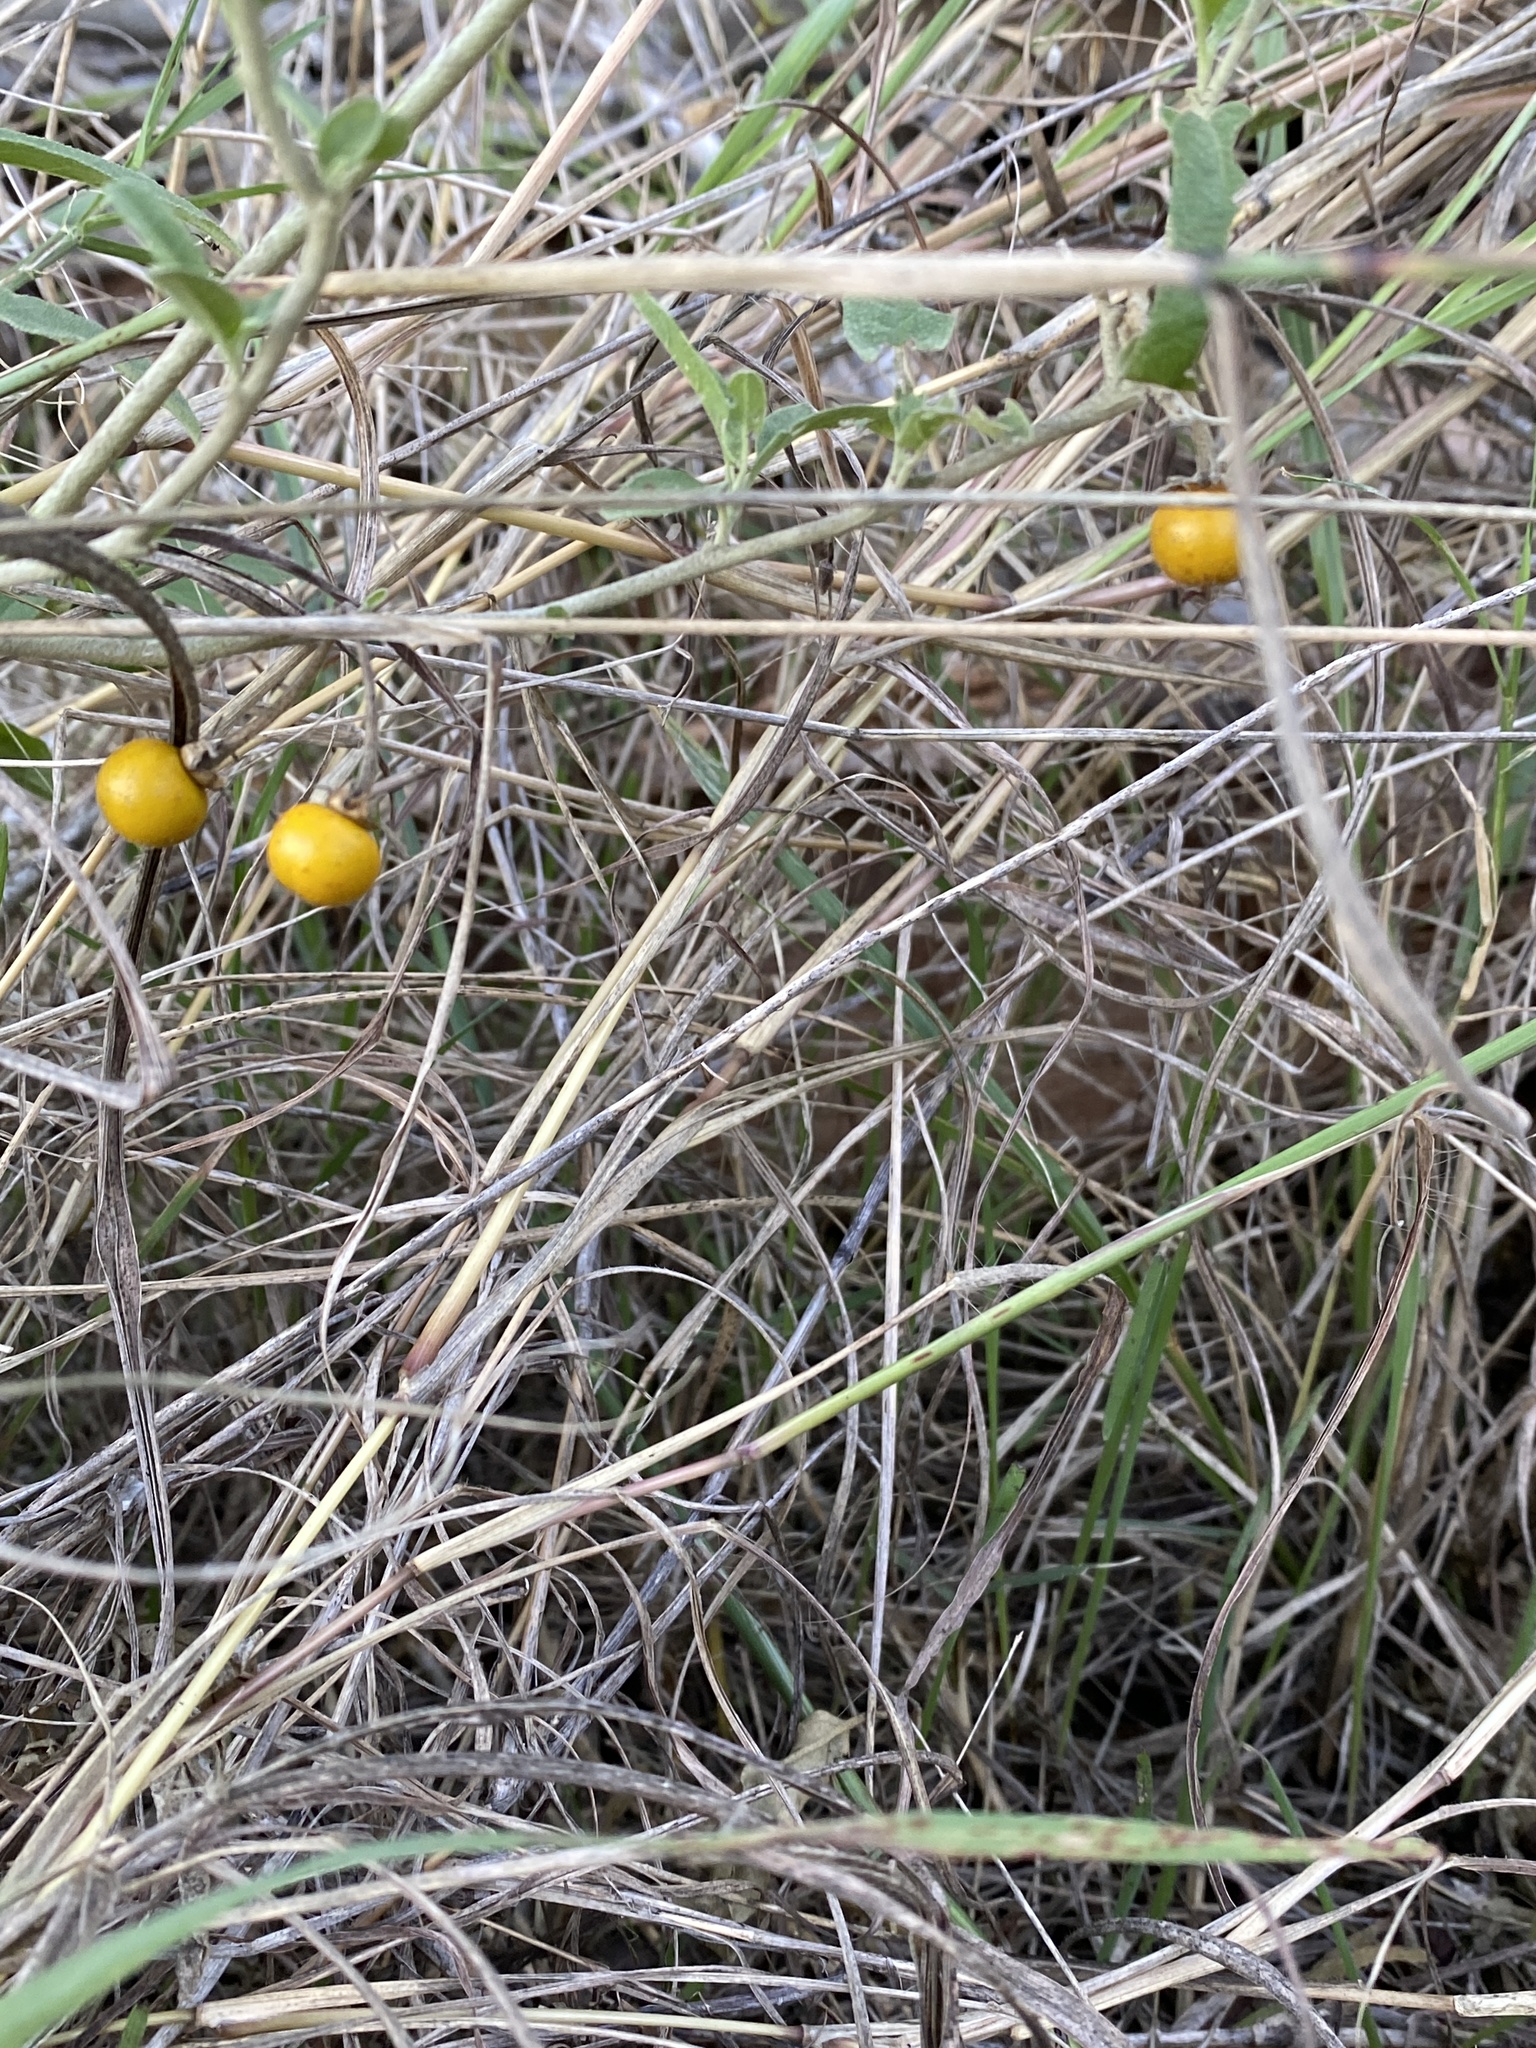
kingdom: Plantae
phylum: Tracheophyta
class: Magnoliopsida
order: Solanales
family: Solanaceae
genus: Solanum
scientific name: Solanum elaeagnifolium
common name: Silverleaf nightshade
